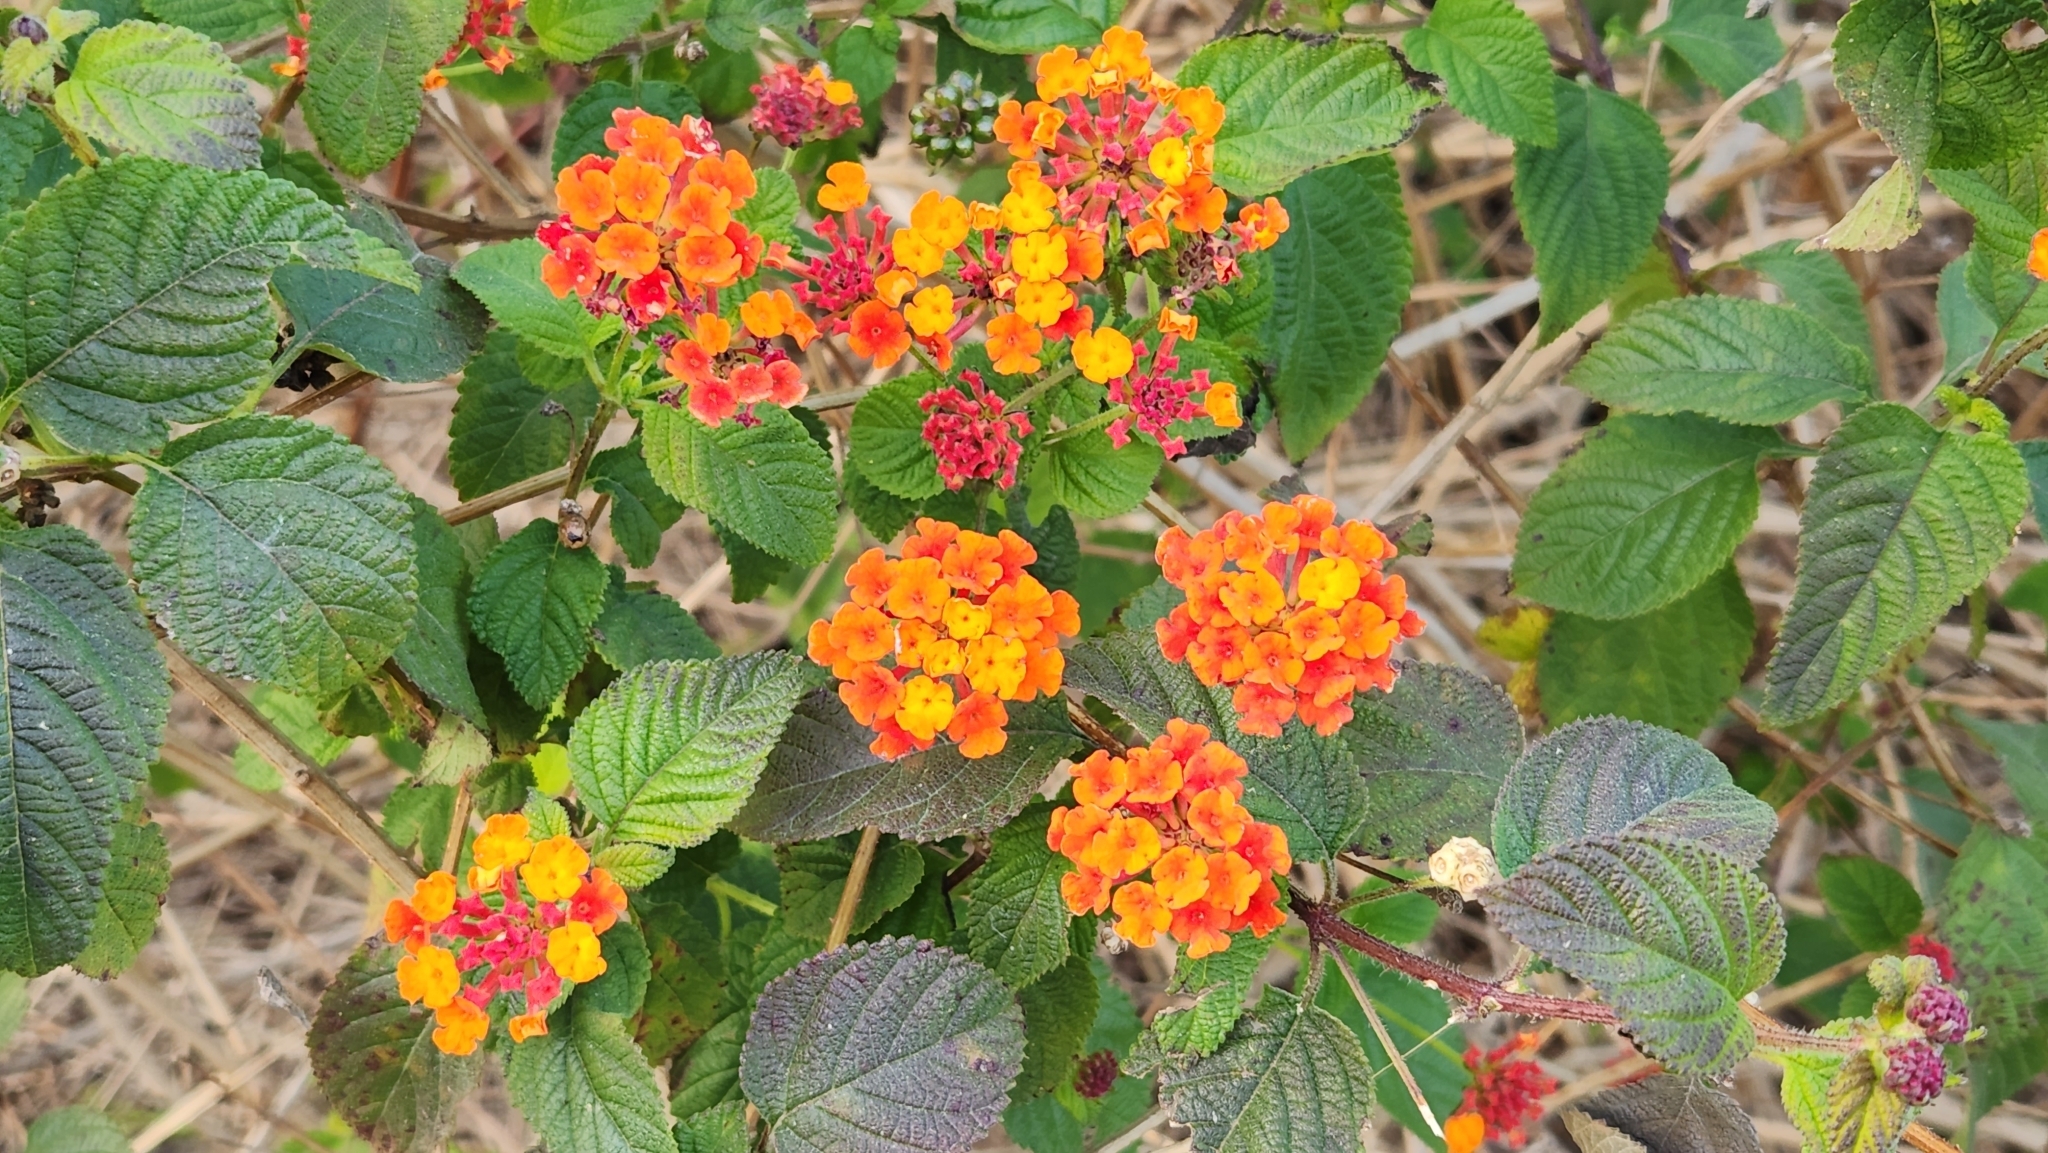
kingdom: Plantae
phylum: Tracheophyta
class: Magnoliopsida
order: Lamiales
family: Verbenaceae
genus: Lantana
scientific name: Lantana camara
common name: Lantana
